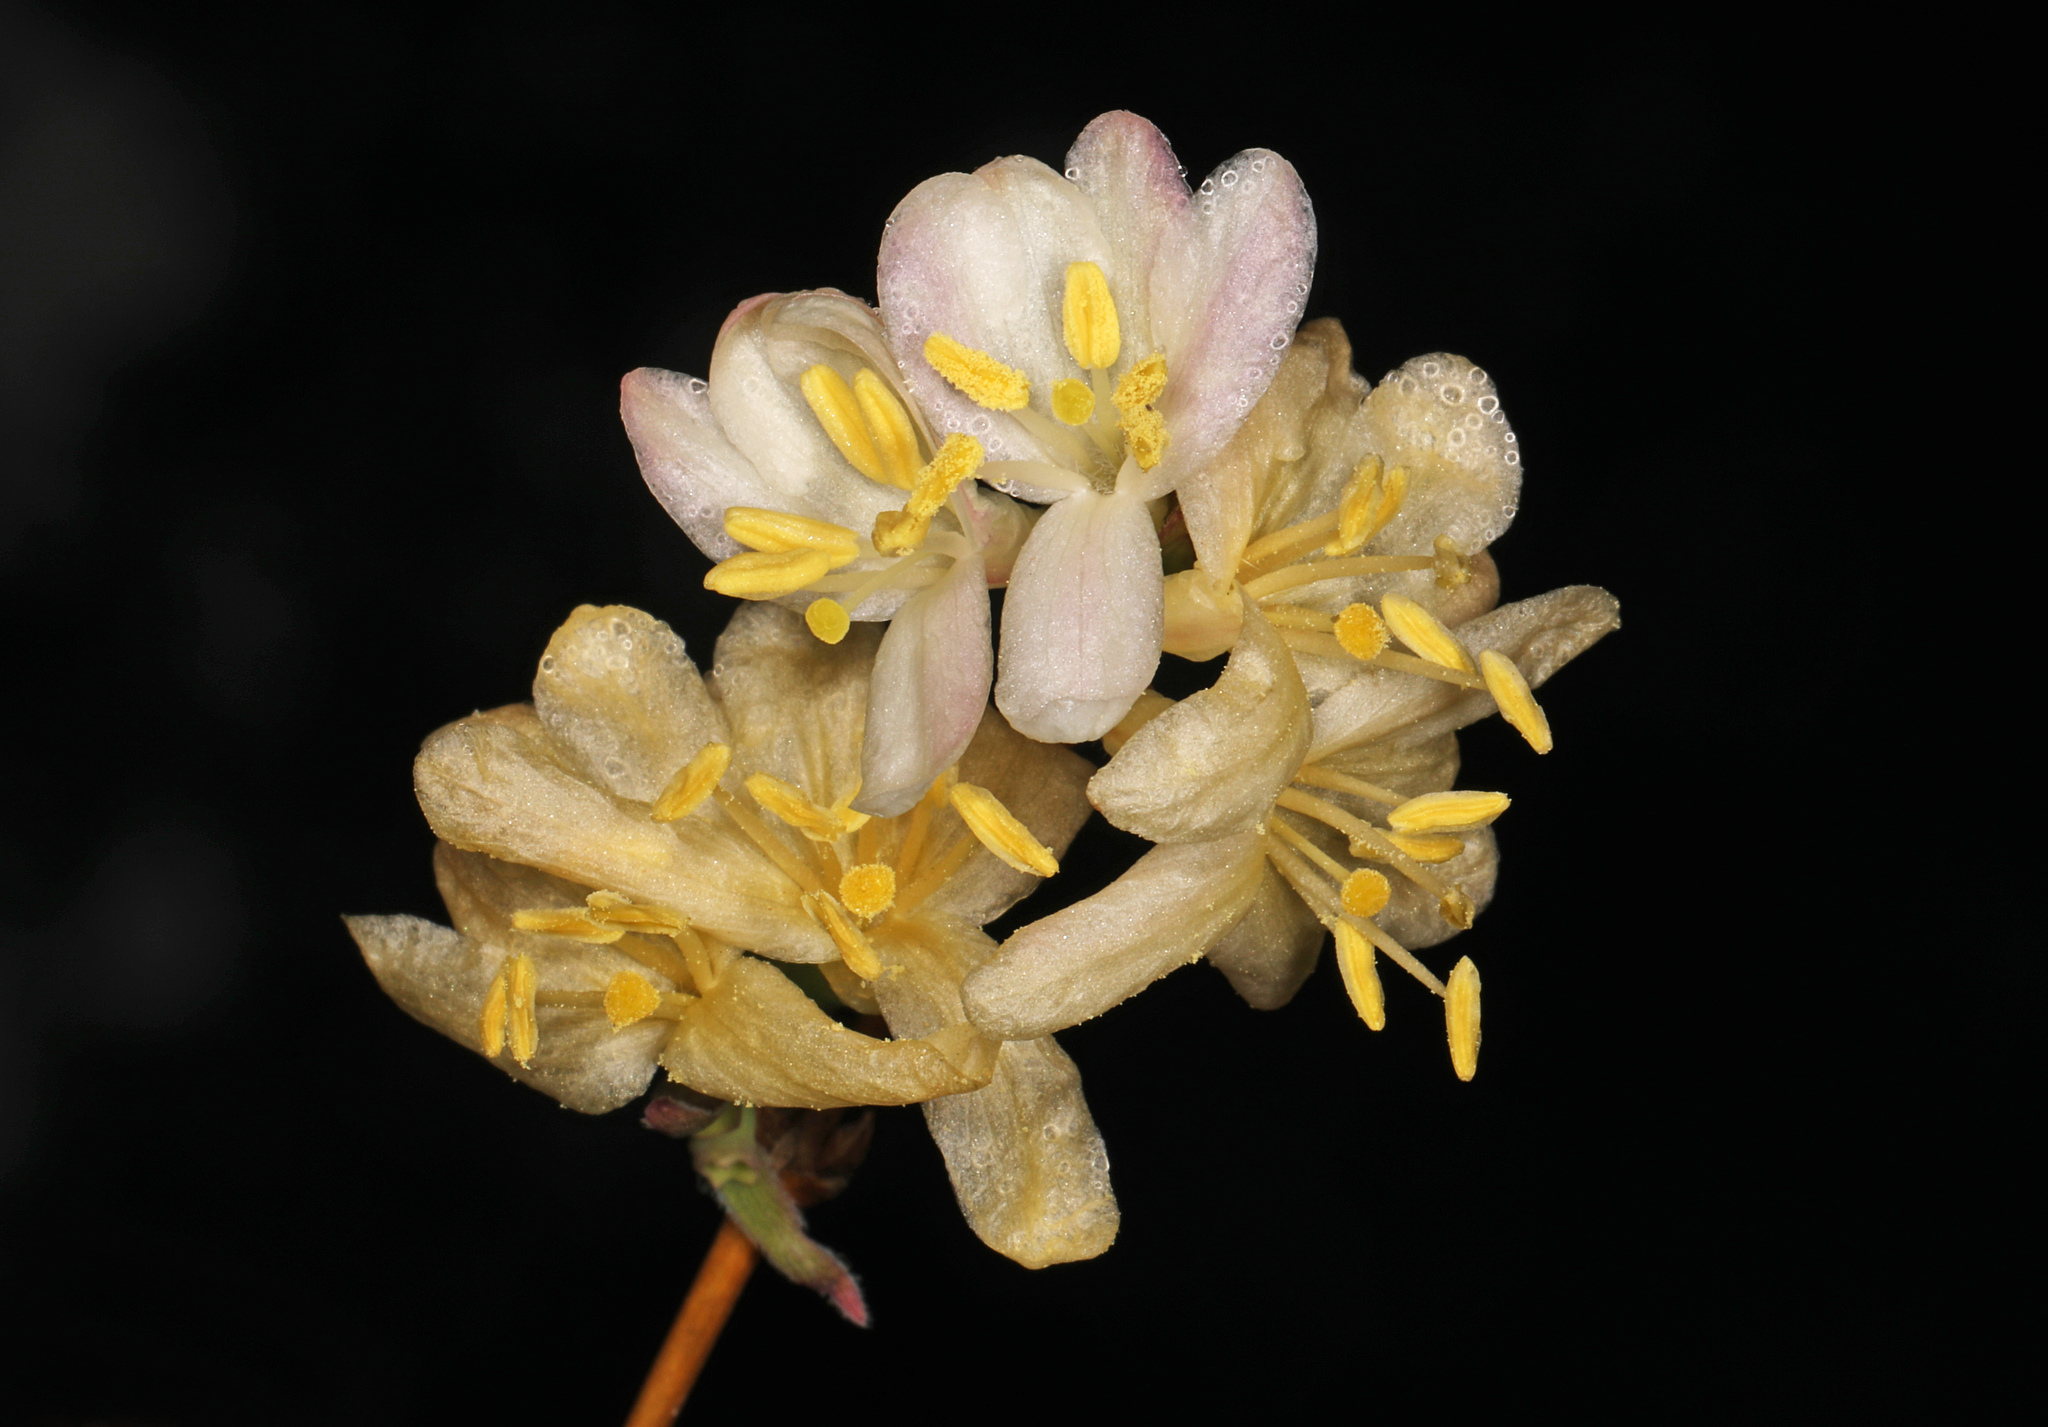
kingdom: Plantae
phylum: Tracheophyta
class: Magnoliopsida
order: Dipsacales
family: Caprifoliaceae
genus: Lonicera
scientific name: Lonicera fragrantissima
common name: Fragrant honeysuckle
